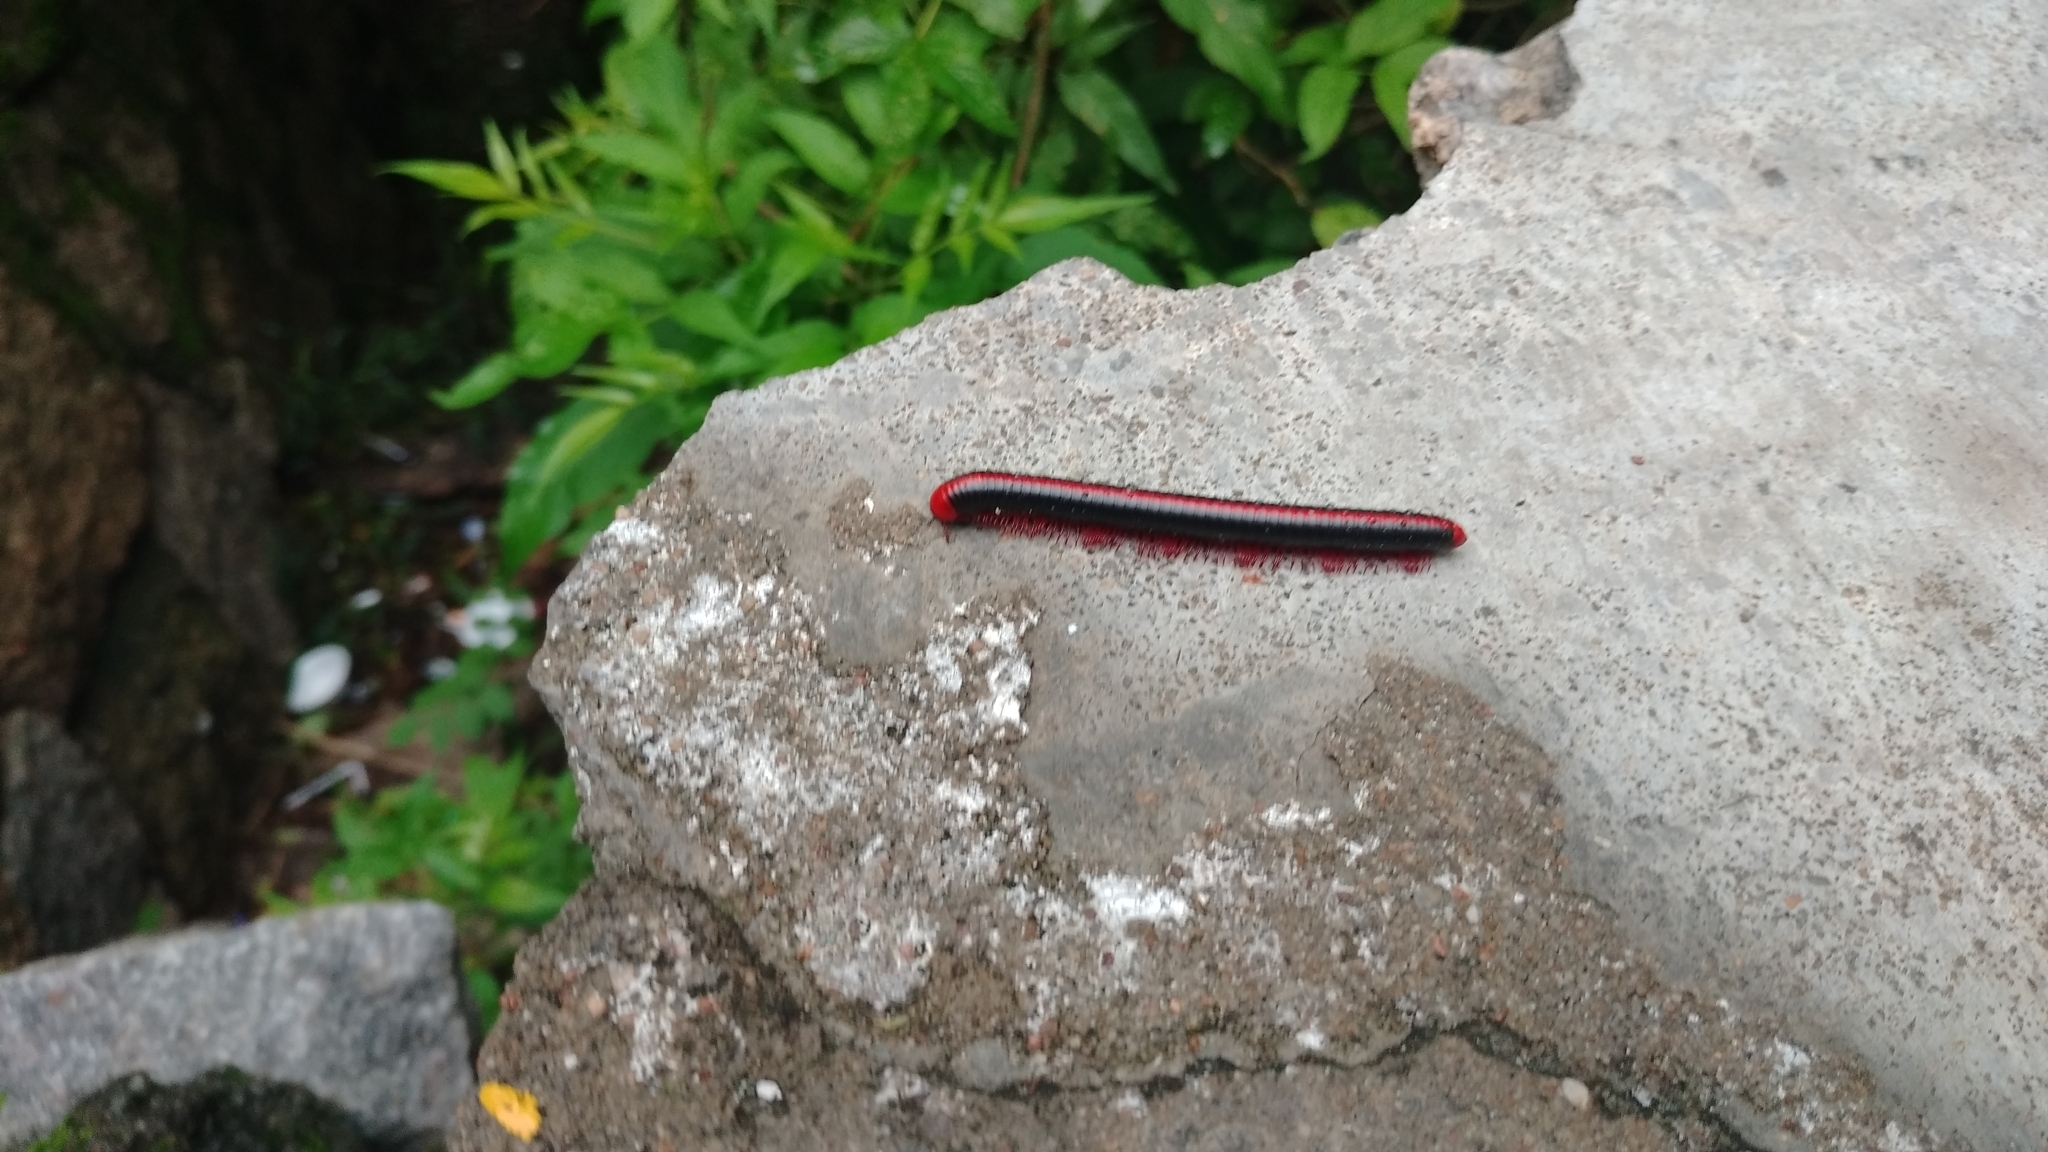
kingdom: Animalia
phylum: Arthropoda
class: Diplopoda
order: Spirobolida
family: Pachybolidae
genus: Xenobolus
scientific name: Xenobolus carnifex
